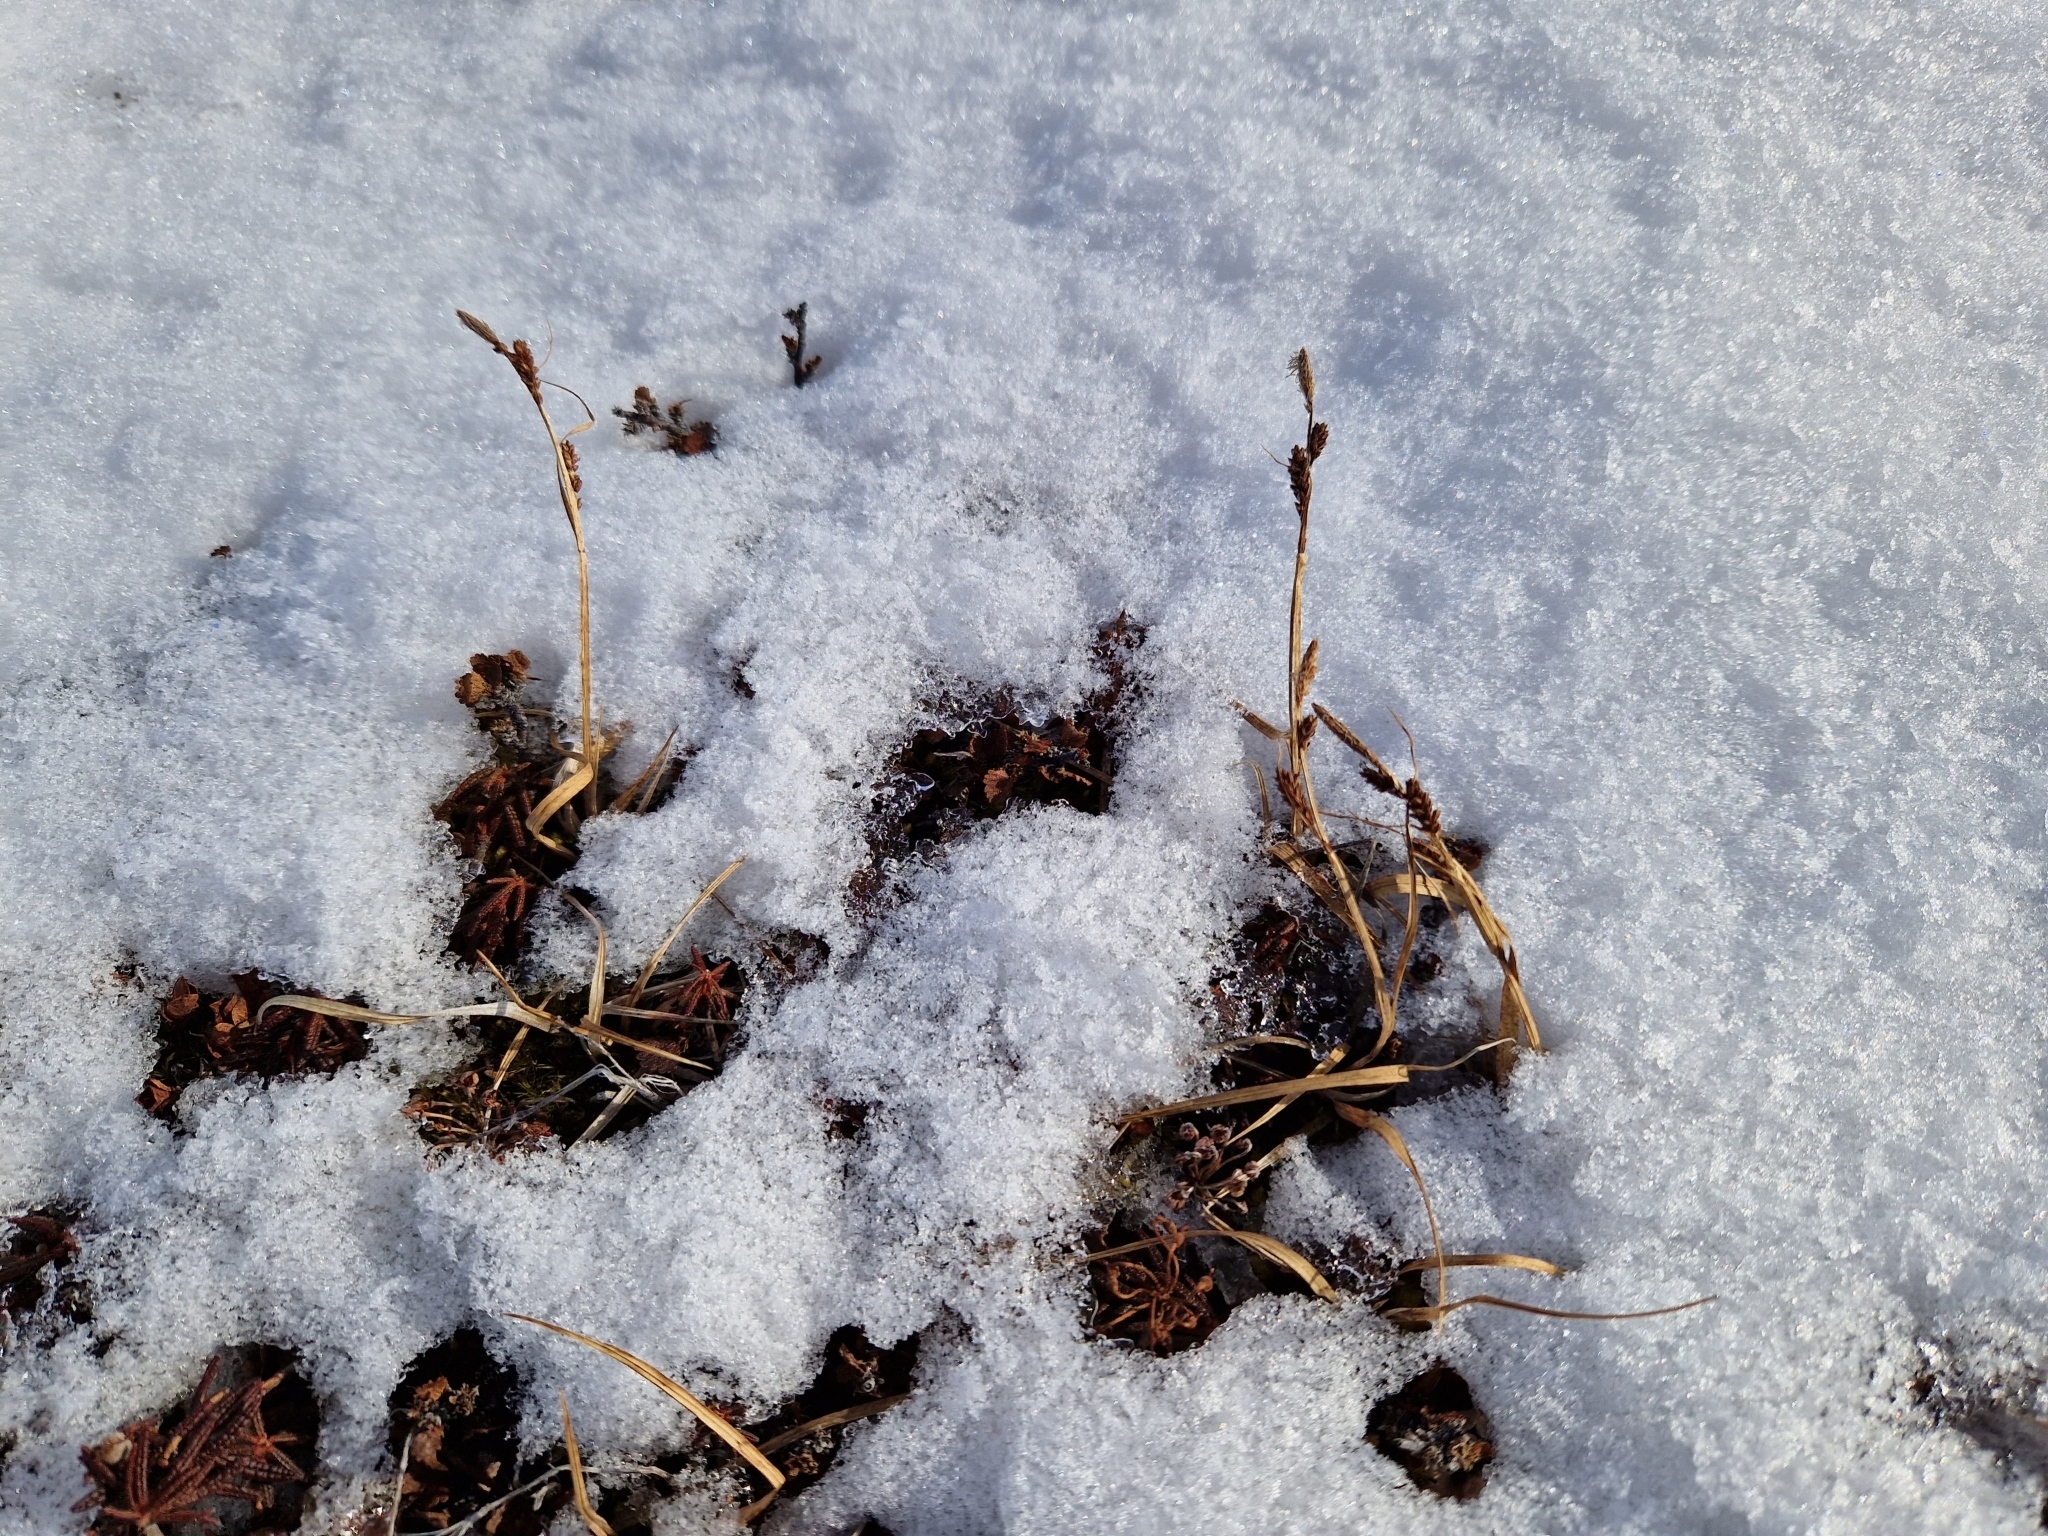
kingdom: Plantae
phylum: Tracheophyta
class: Liliopsida
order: Poales
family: Cyperaceae
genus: Carex
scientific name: Carex bigelowii
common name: Stiff sedge
